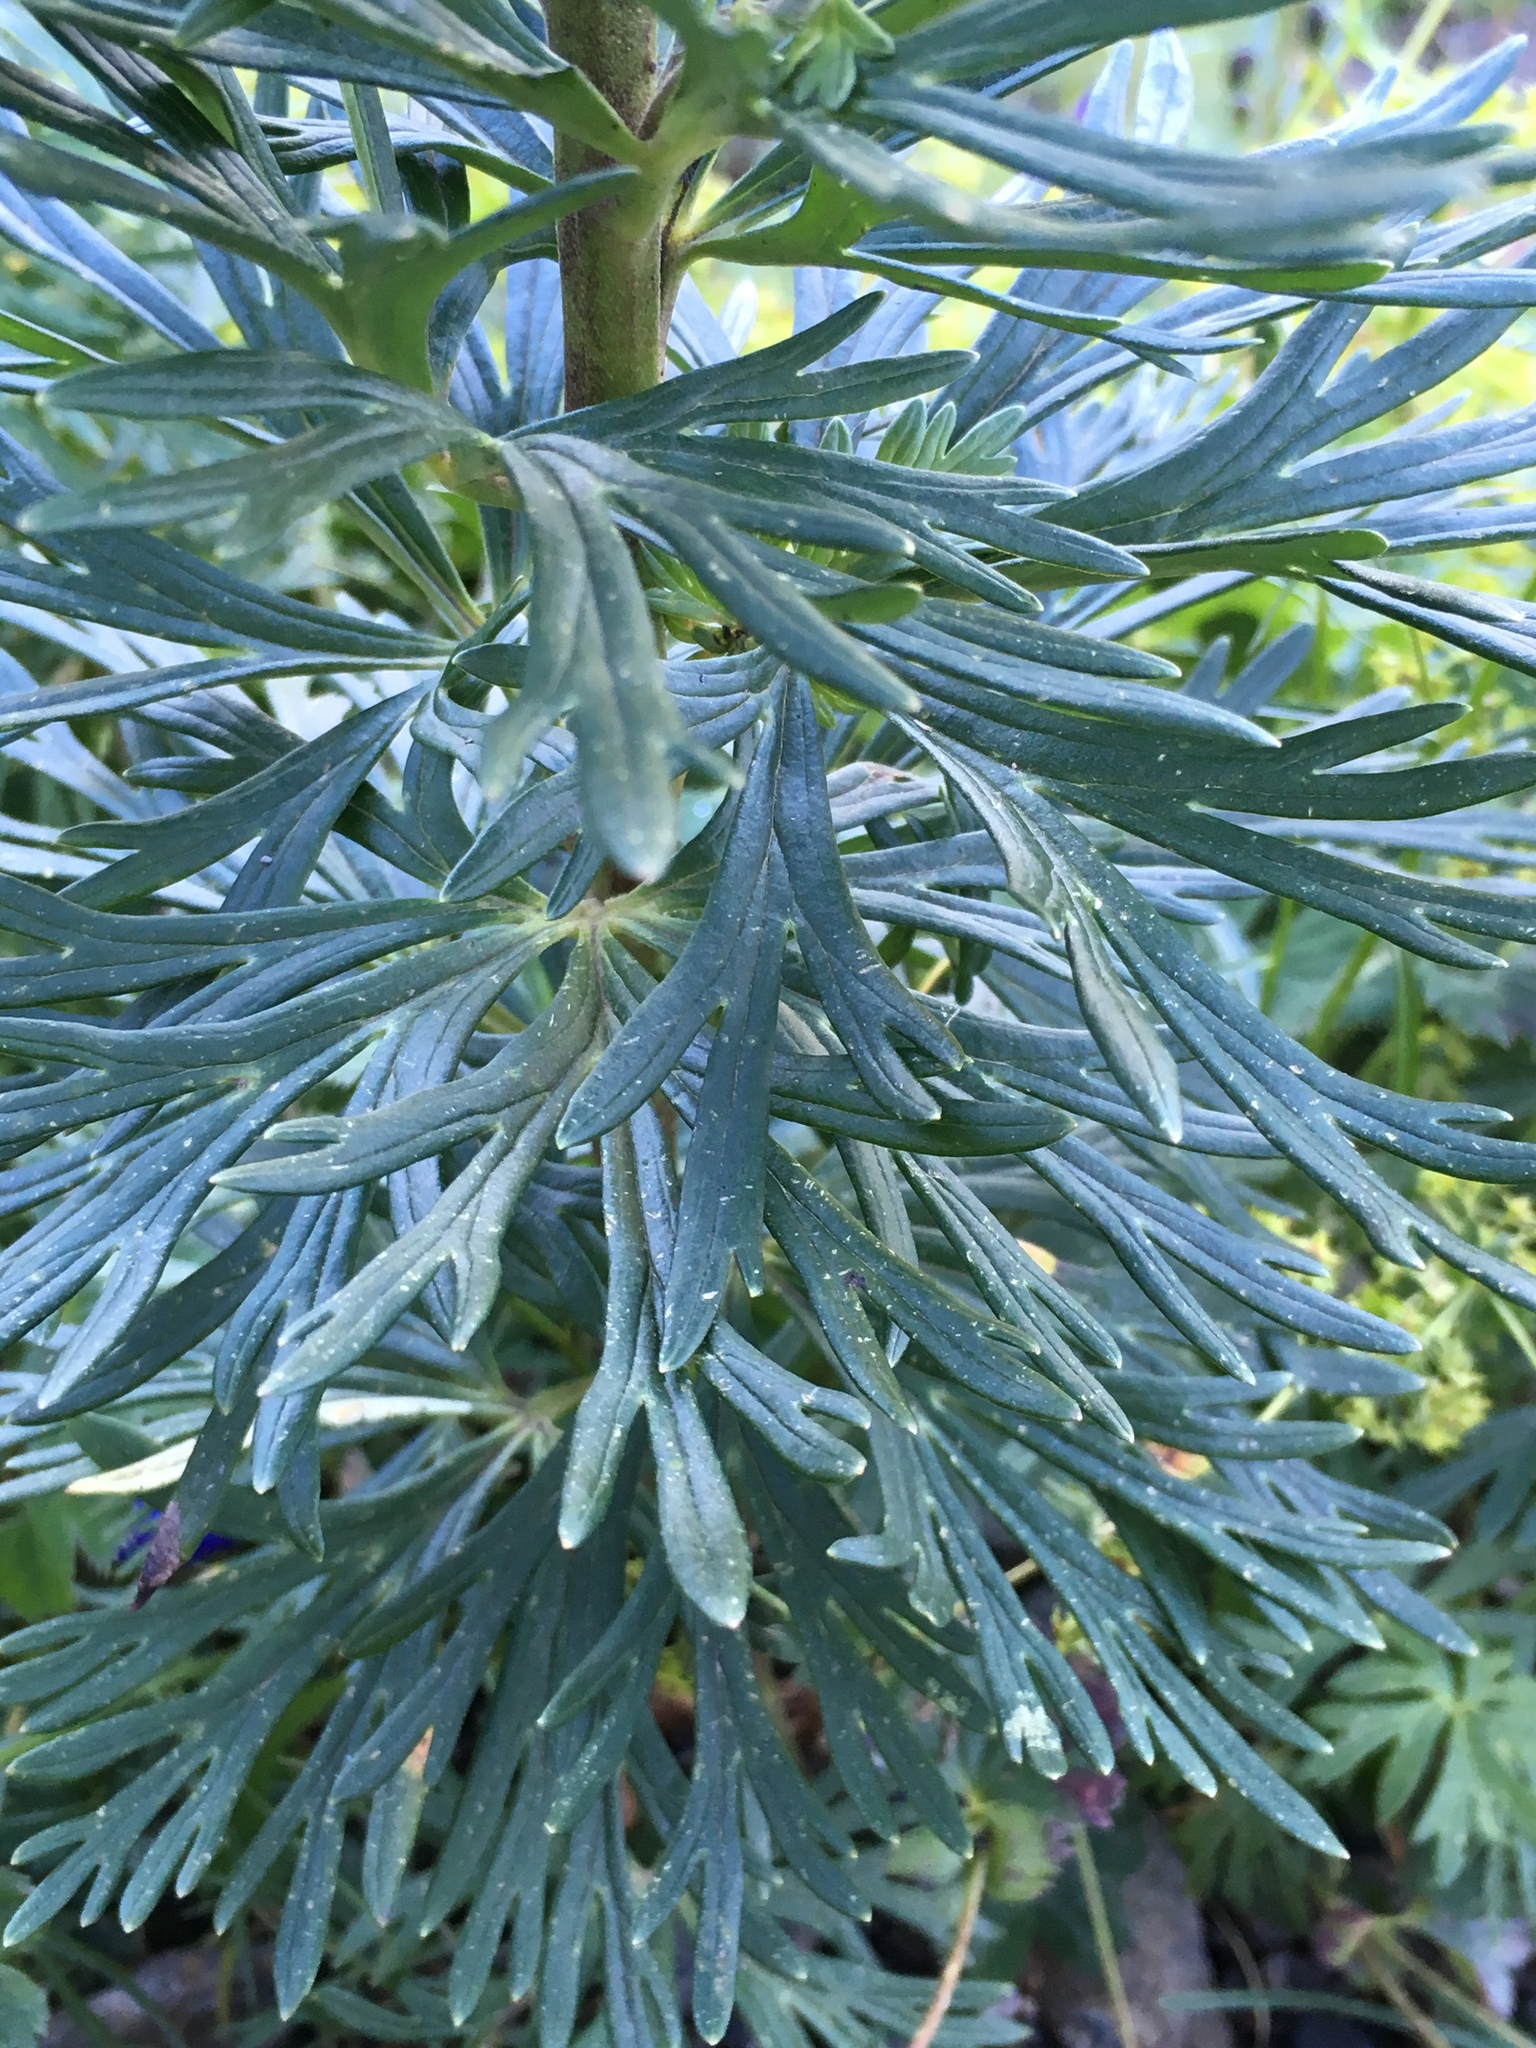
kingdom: Plantae
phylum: Tracheophyta
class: Magnoliopsida
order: Ranunculales
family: Ranunculaceae
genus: Aconitum
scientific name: Aconitum napellus
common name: Garden monkshood
